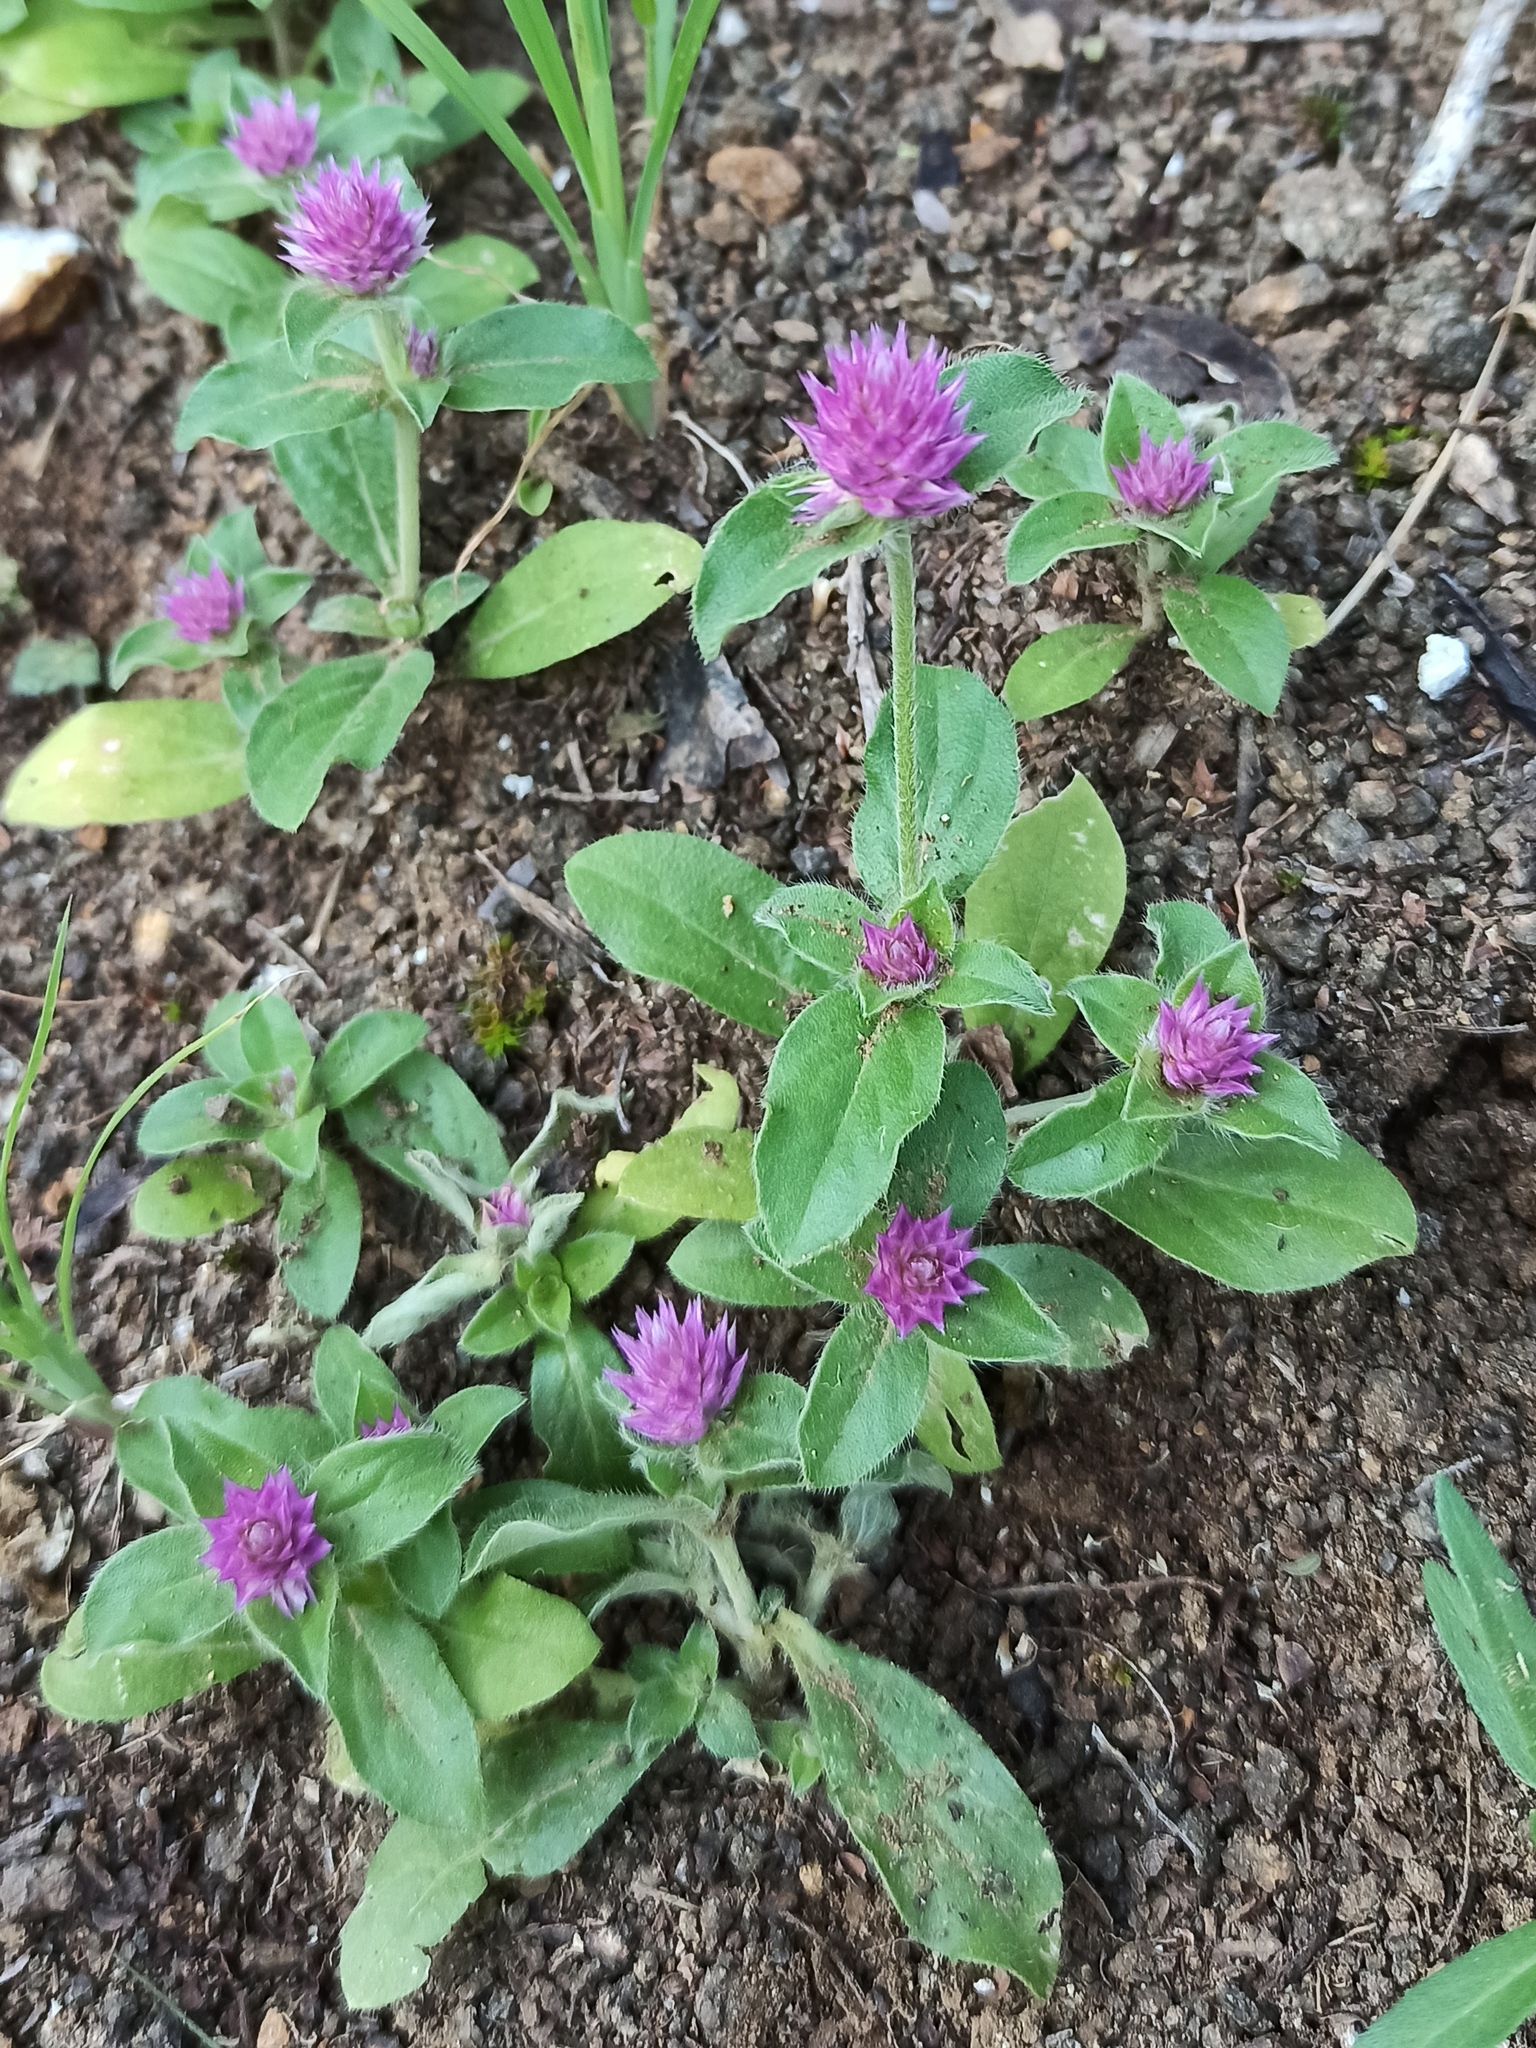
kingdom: Plantae
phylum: Tracheophyta
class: Magnoliopsida
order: Caryophyllales
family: Amaranthaceae
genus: Gomphrena
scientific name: Gomphrena nitida
